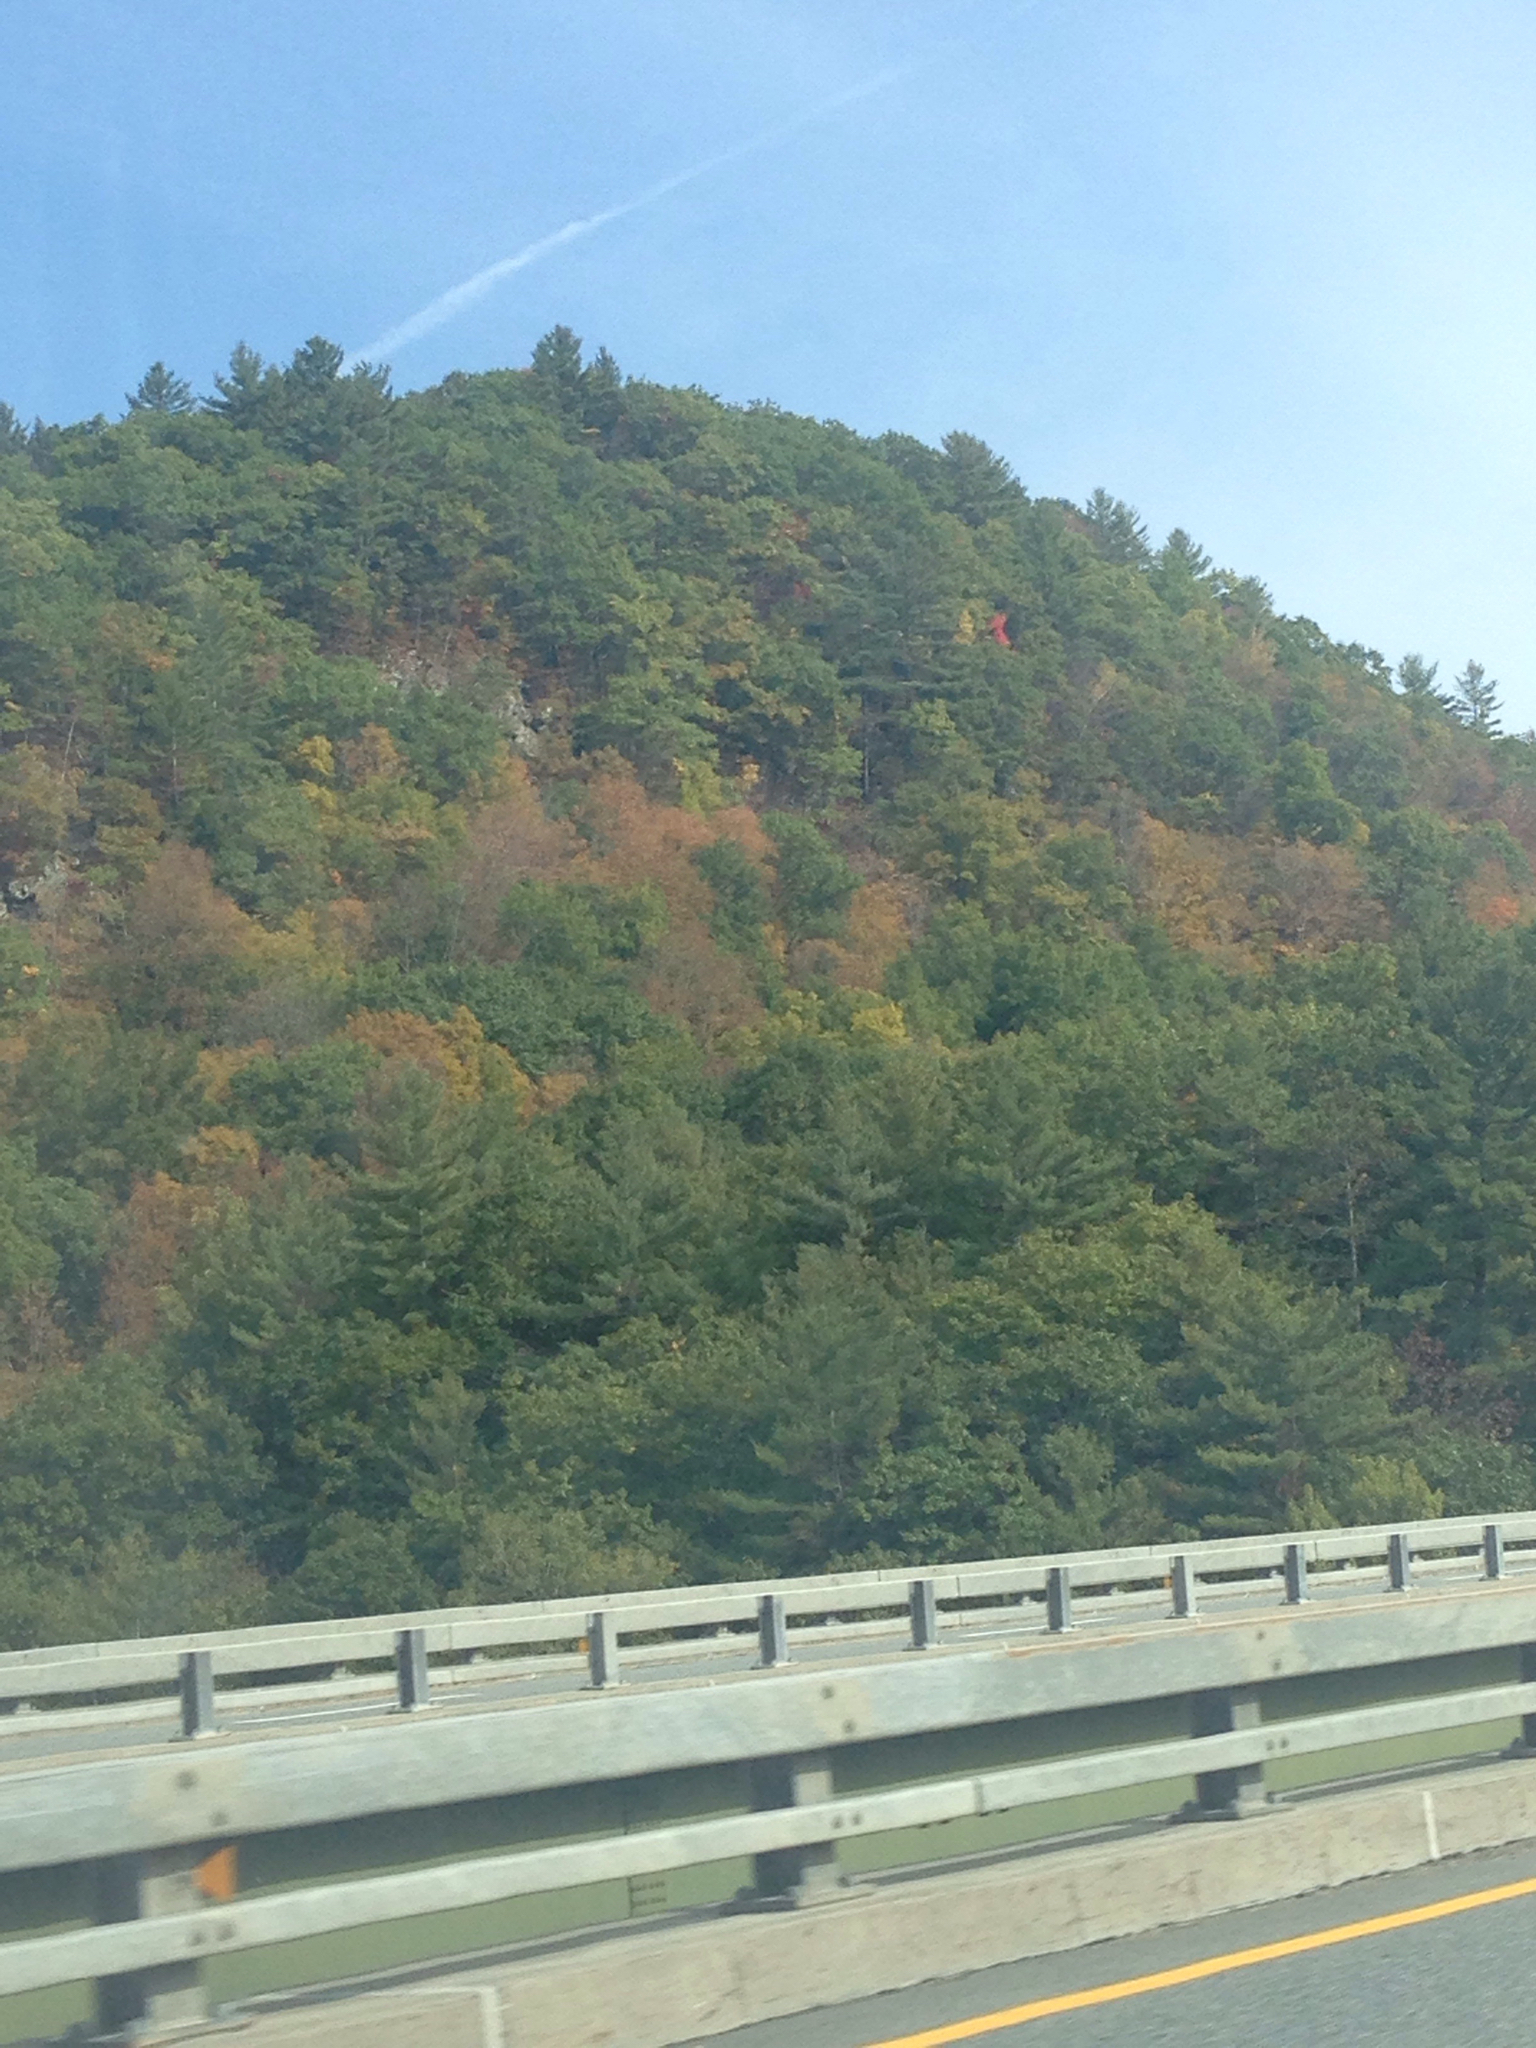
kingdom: Plantae
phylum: Tracheophyta
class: Magnoliopsida
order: Fagales
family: Fagaceae
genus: Quercus
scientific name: Quercus rubra
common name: Red oak
